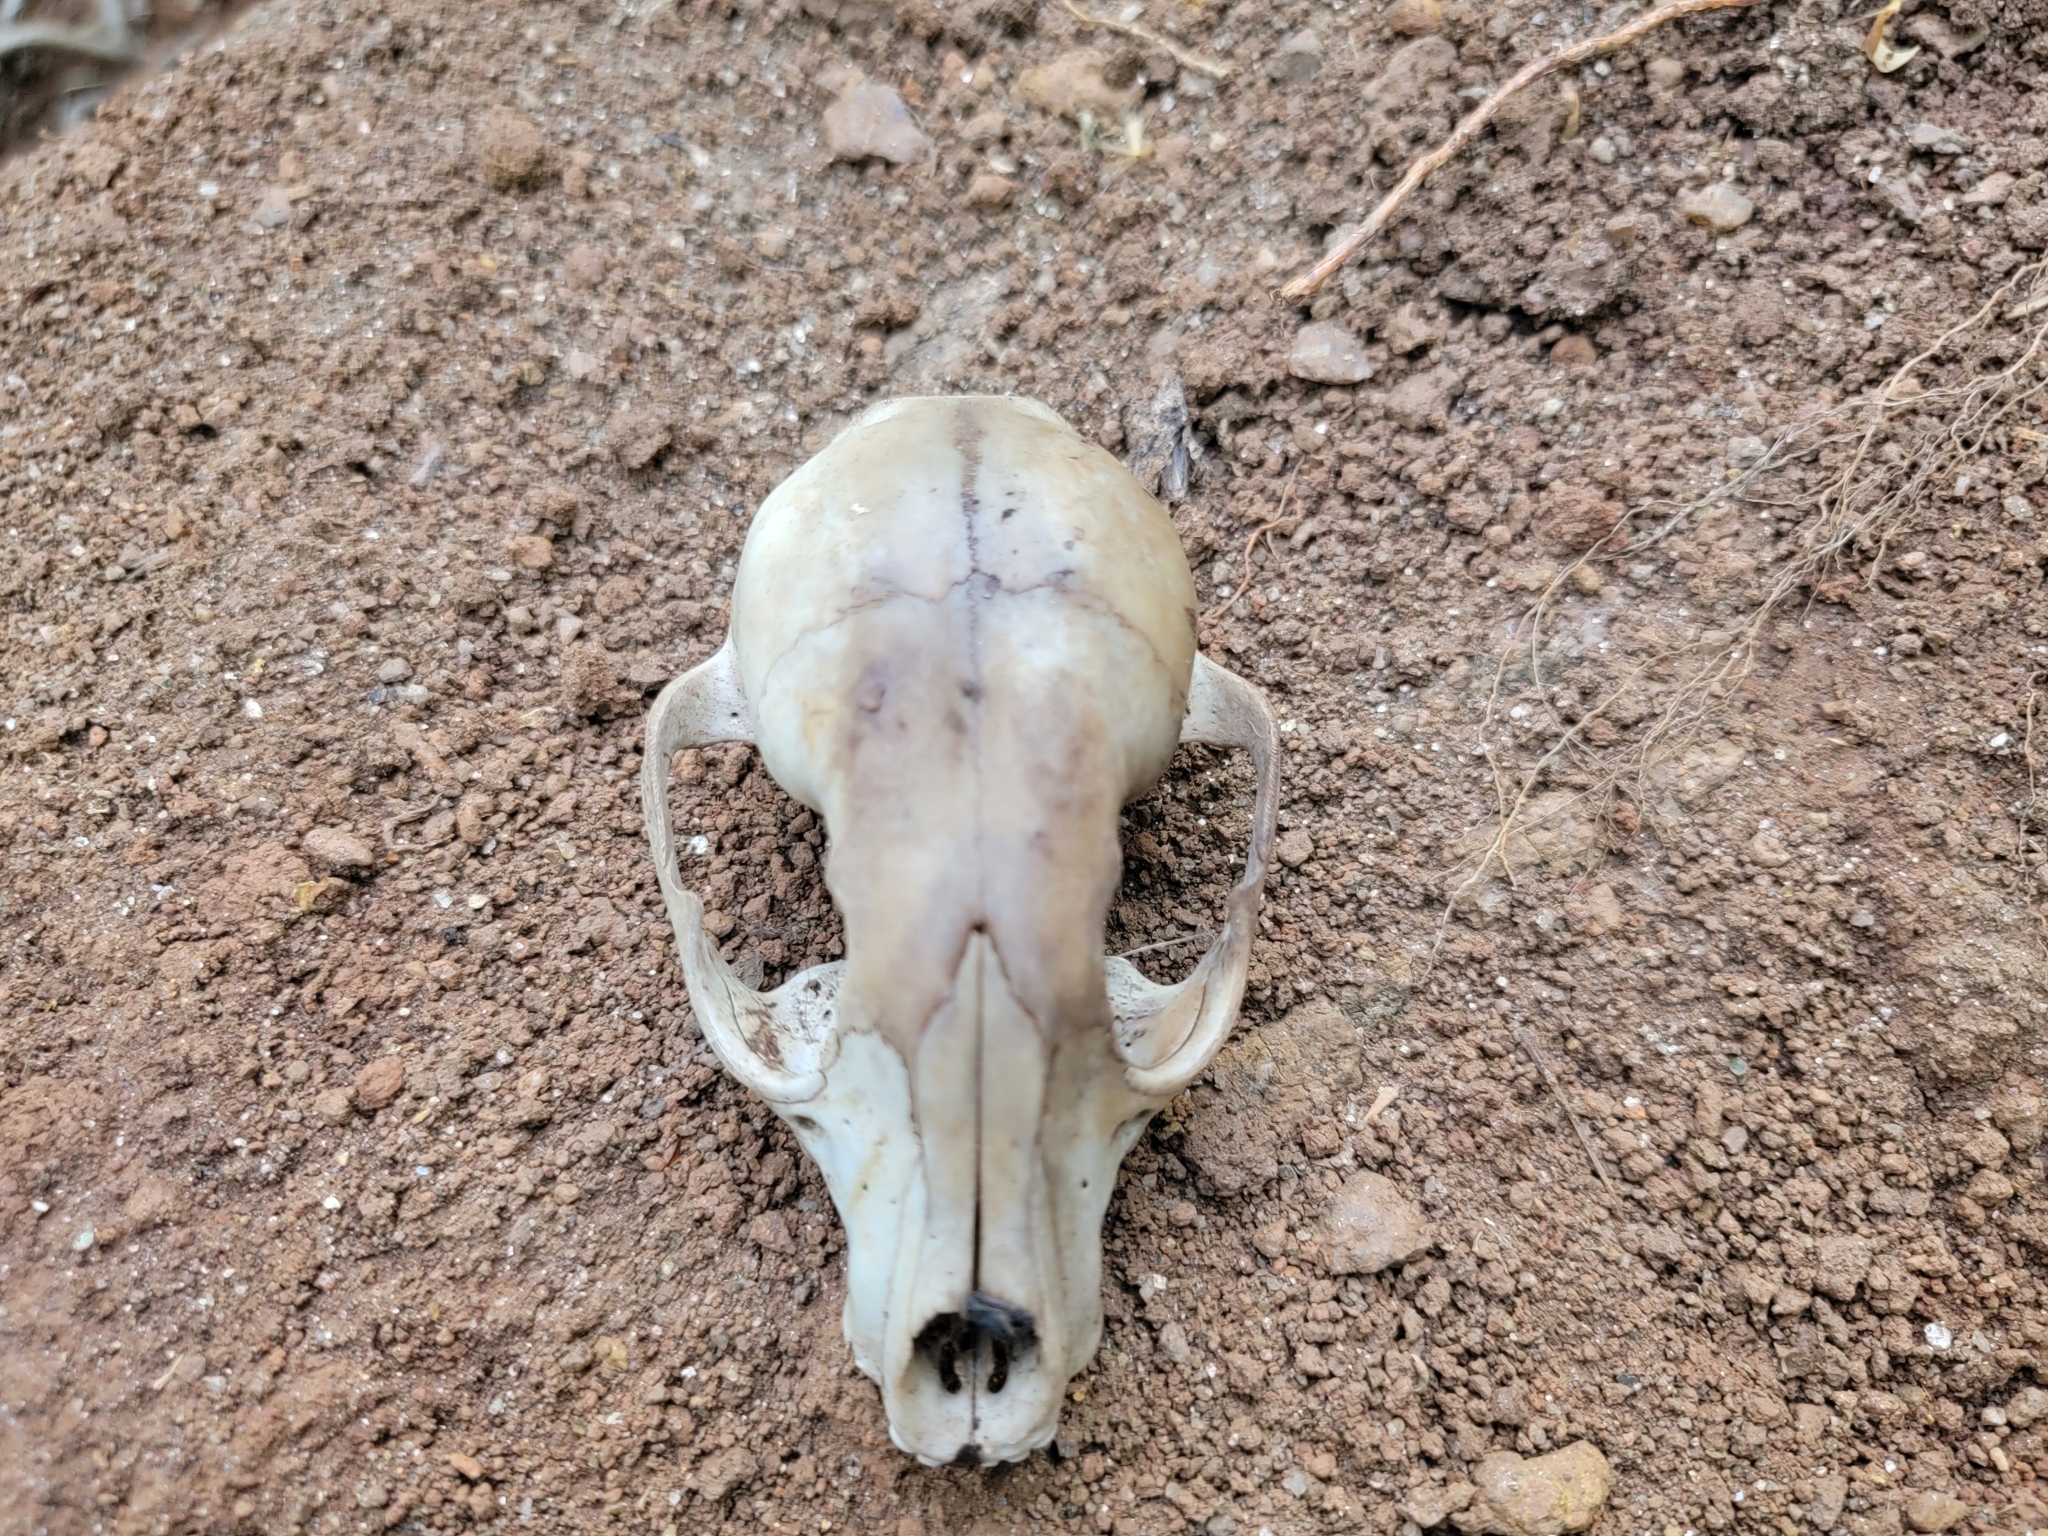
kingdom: Animalia
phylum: Chordata
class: Mammalia
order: Carnivora
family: Procyonidae
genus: Procyon
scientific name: Procyon lotor
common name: Raccoon
